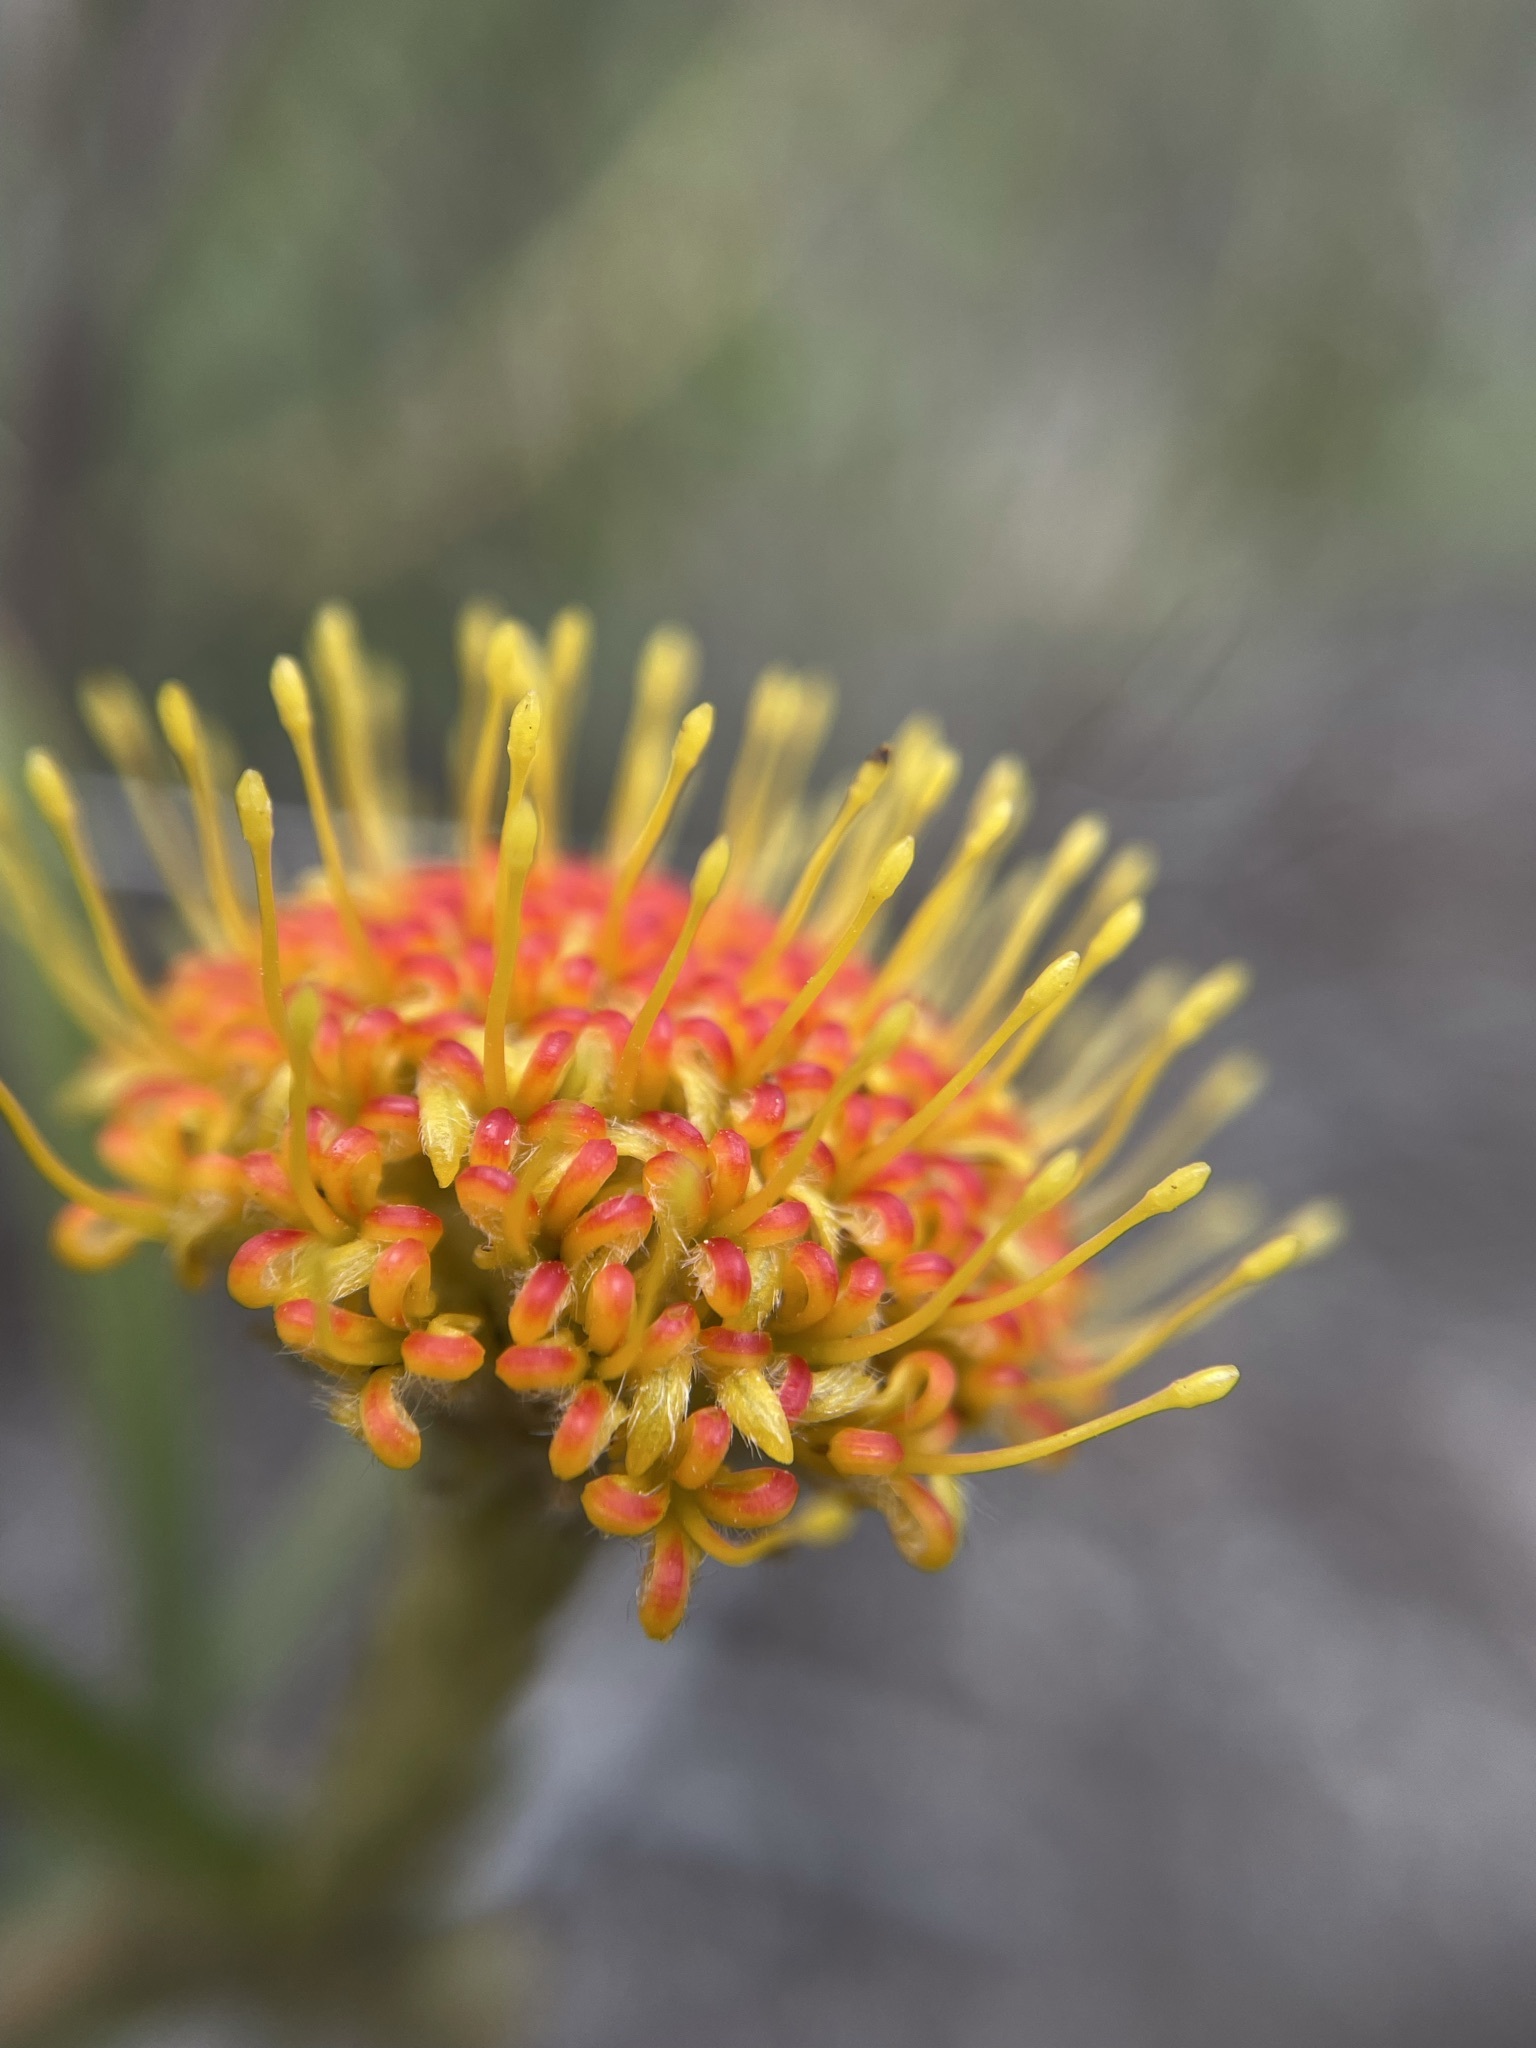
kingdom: Plantae
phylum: Tracheophyta
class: Magnoliopsida
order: Proteales
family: Proteaceae
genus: Leucospermum
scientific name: Leucospermum prostratum
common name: Yellow-trailing pincushion
